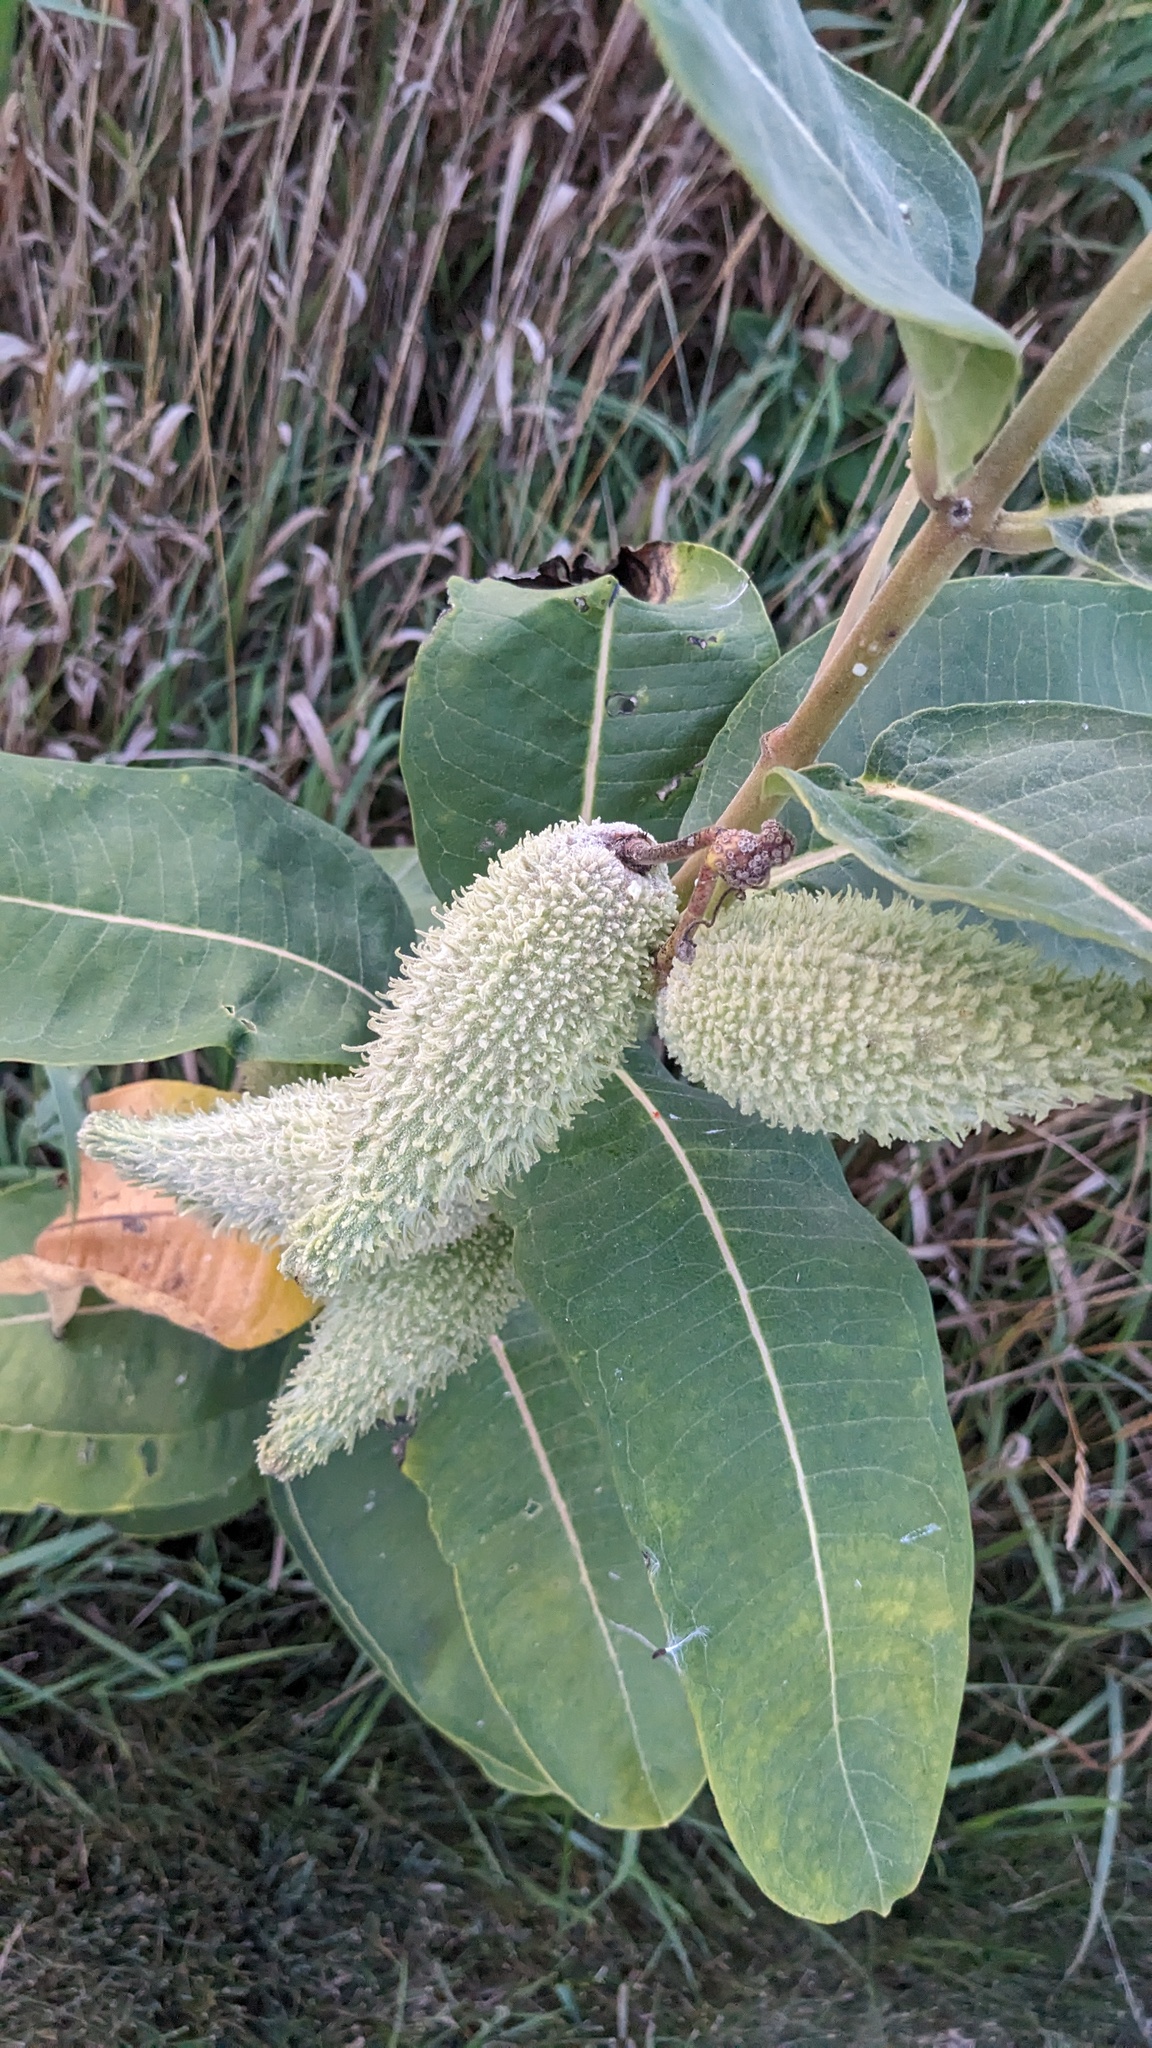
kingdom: Plantae
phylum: Tracheophyta
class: Magnoliopsida
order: Gentianales
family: Apocynaceae
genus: Asclepias
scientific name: Asclepias syriaca
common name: Common milkweed
